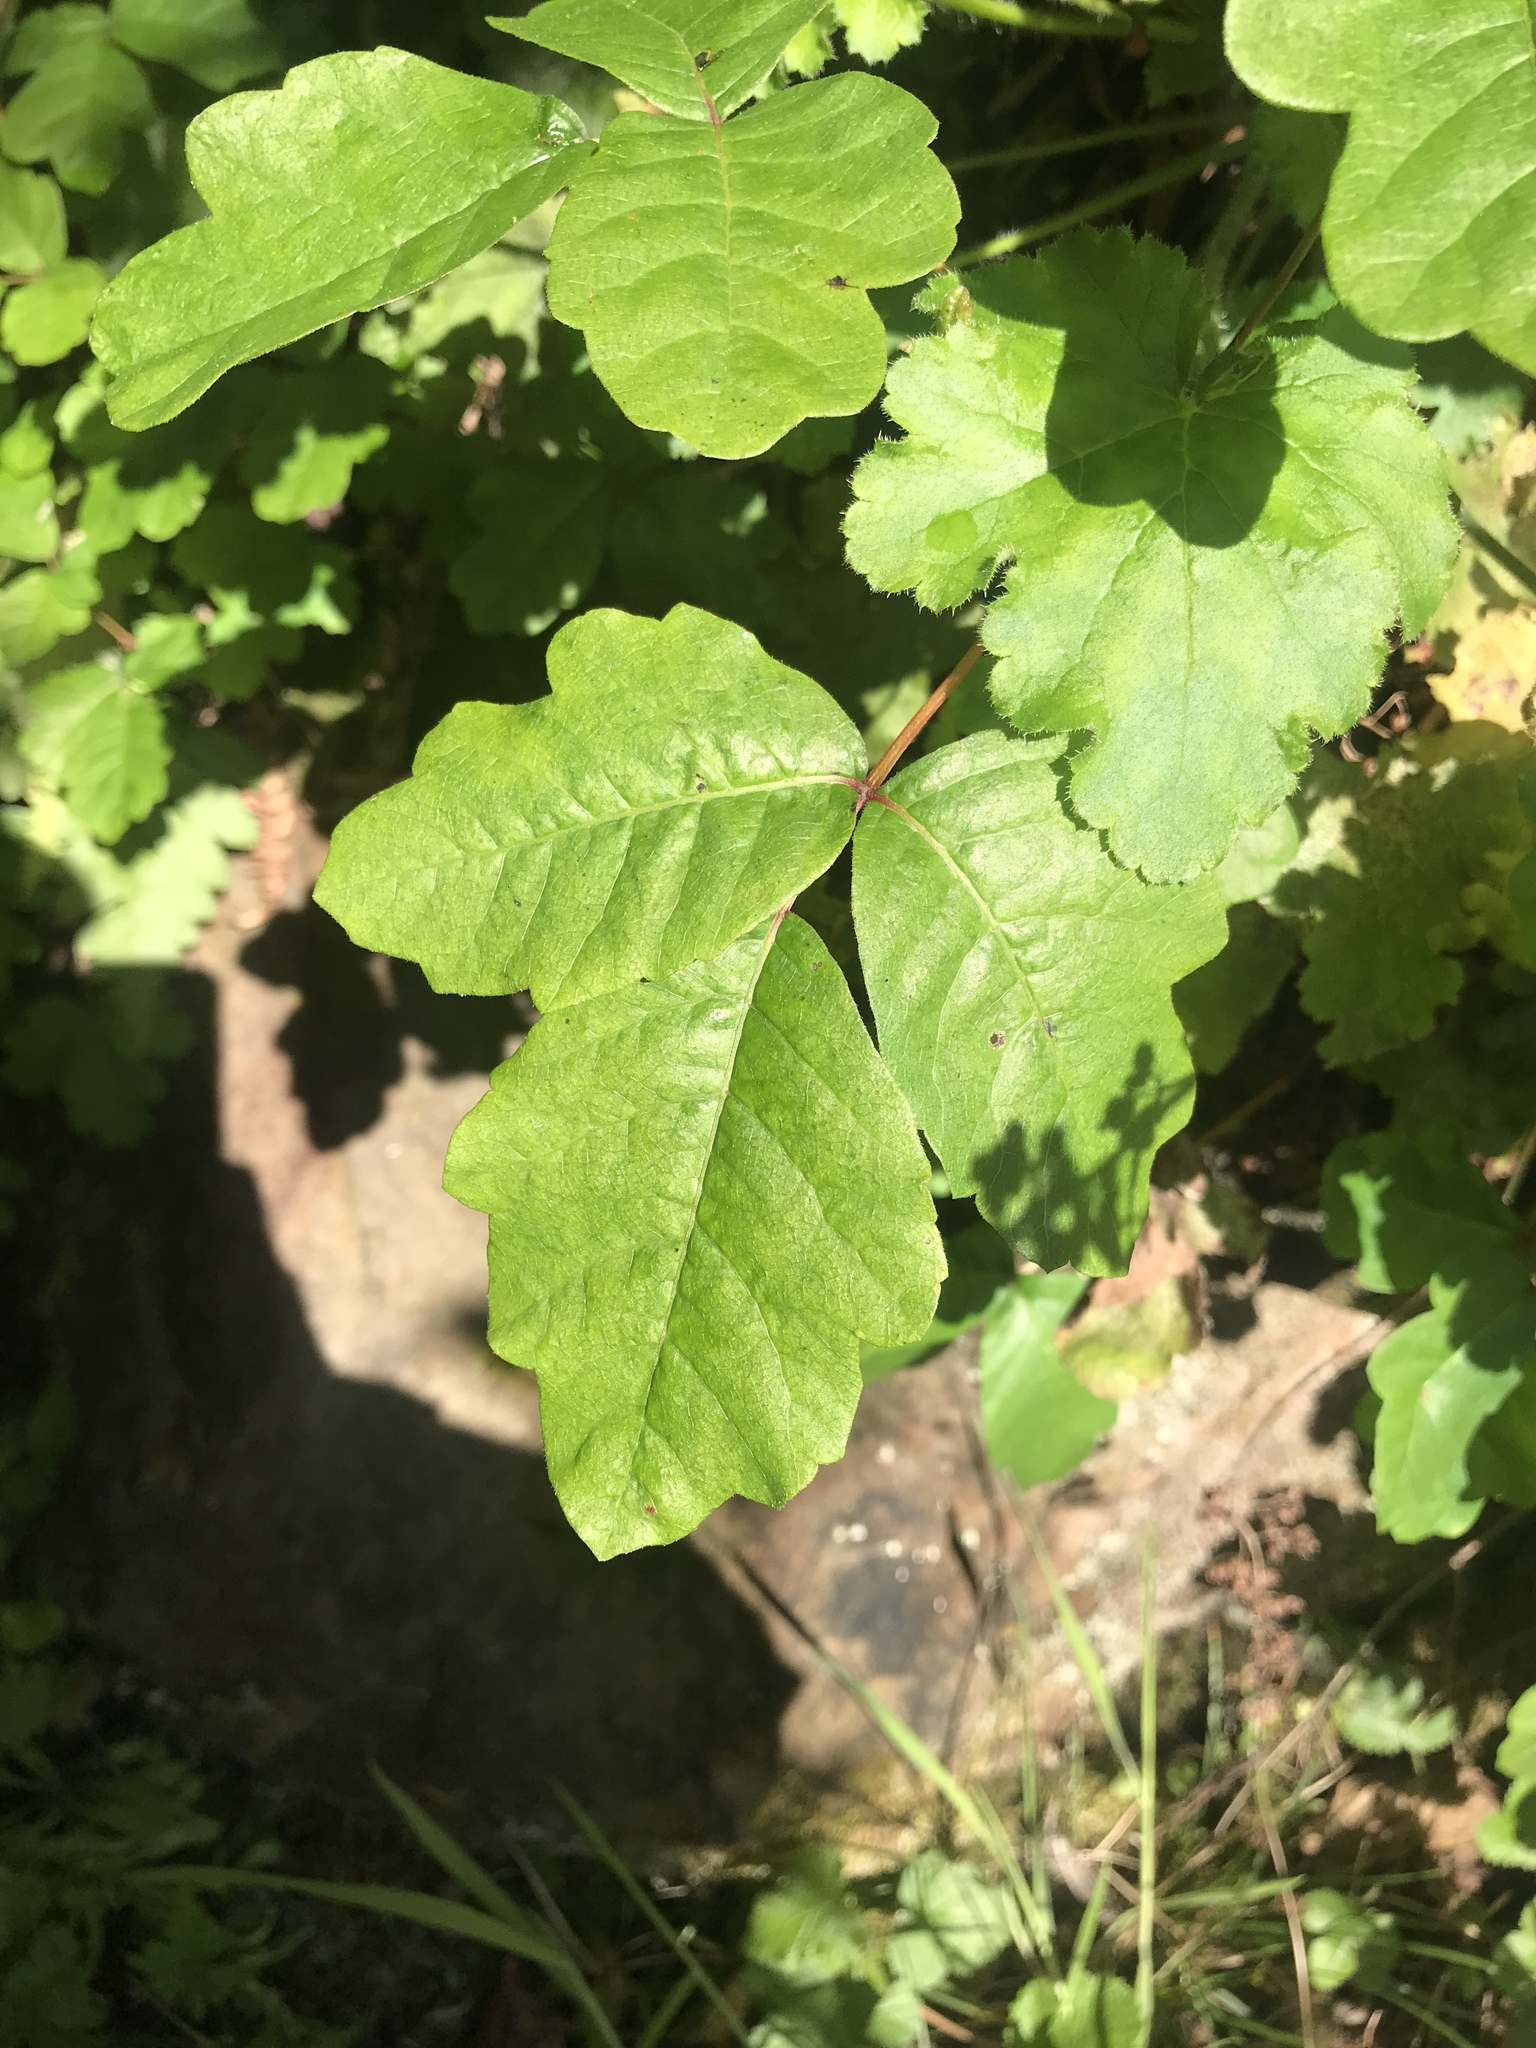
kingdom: Plantae
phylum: Tracheophyta
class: Magnoliopsida
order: Sapindales
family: Anacardiaceae
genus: Toxicodendron
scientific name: Toxicodendron diversilobum
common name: Pacific poison-oak
